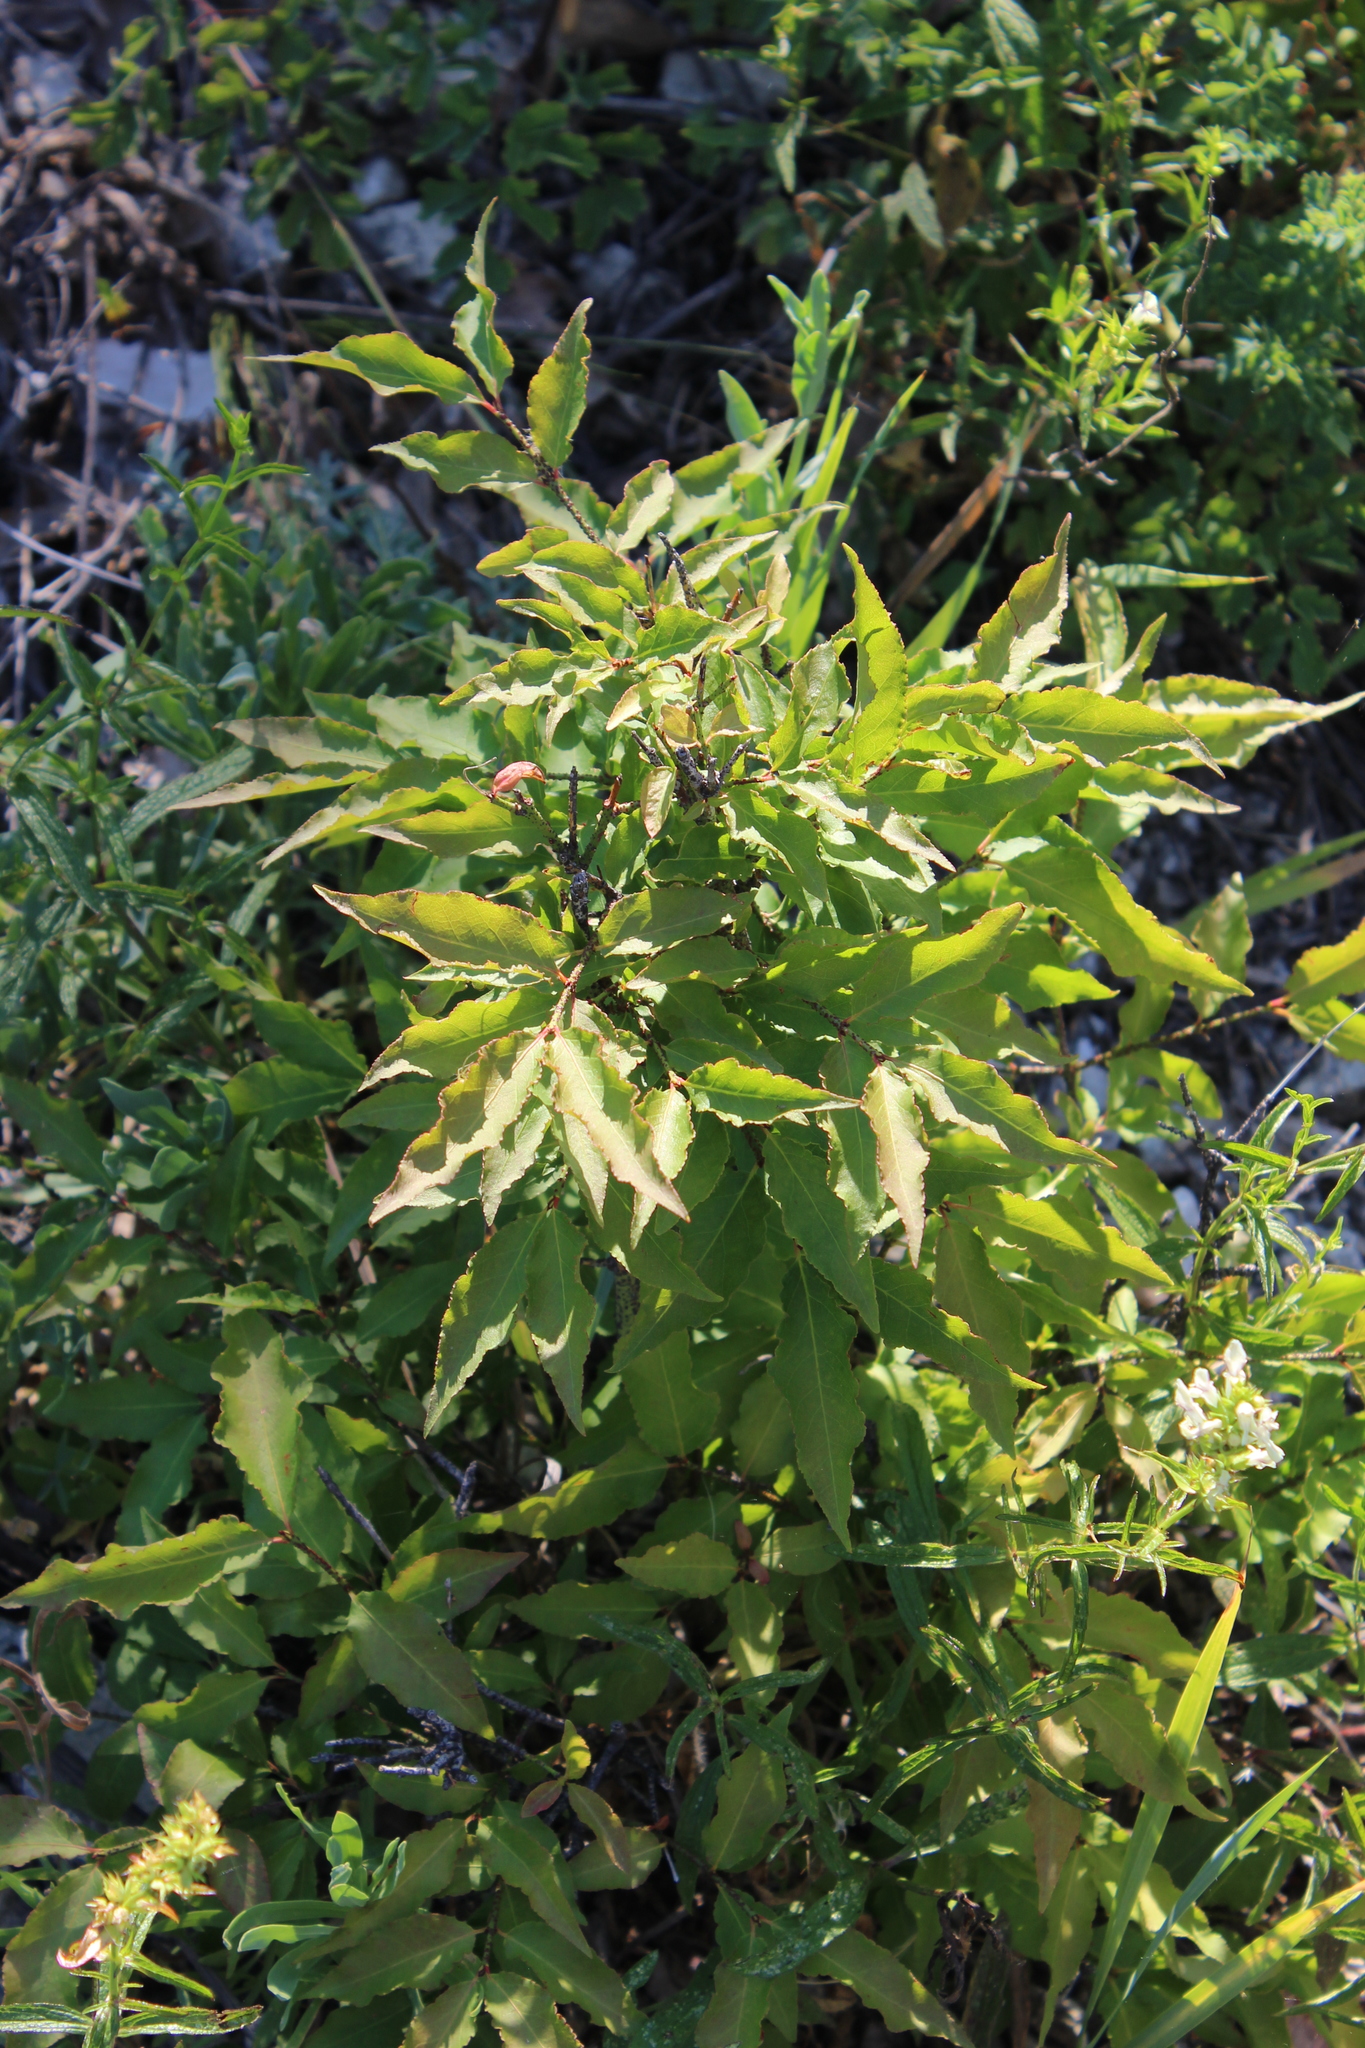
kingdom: Plantae
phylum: Tracheophyta
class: Magnoliopsida
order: Celastrales
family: Celastraceae
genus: Euonymus
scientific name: Euonymus verrucosus
